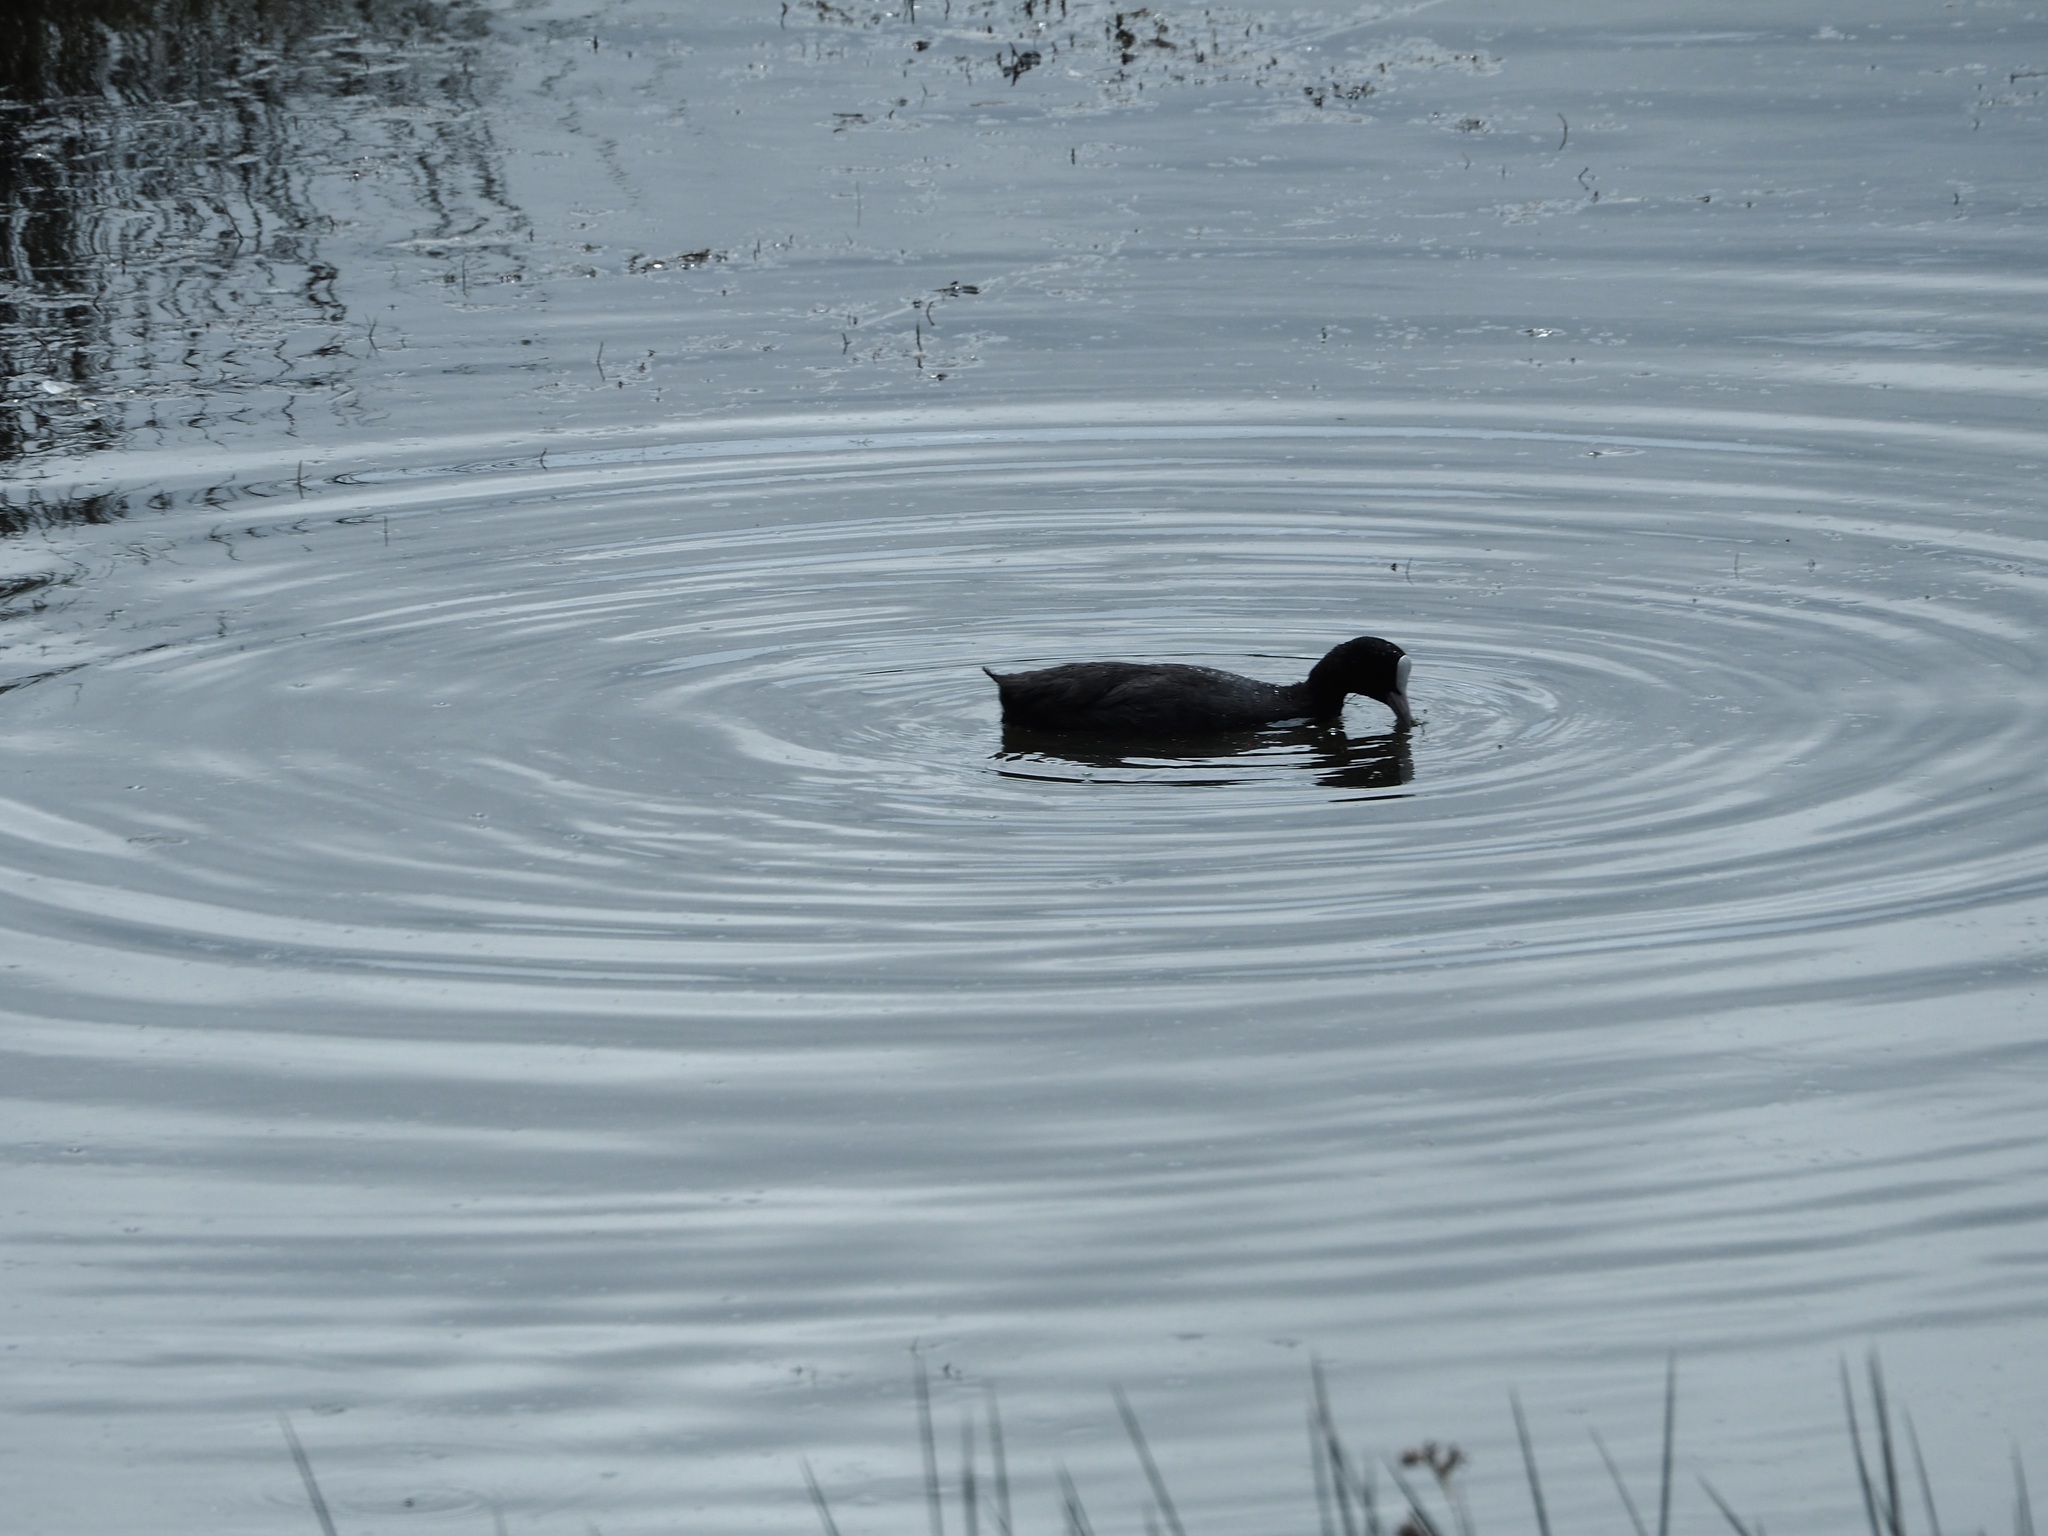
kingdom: Animalia
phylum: Chordata
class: Aves
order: Gruiformes
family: Rallidae
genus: Fulica
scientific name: Fulica atra
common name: Eurasian coot
